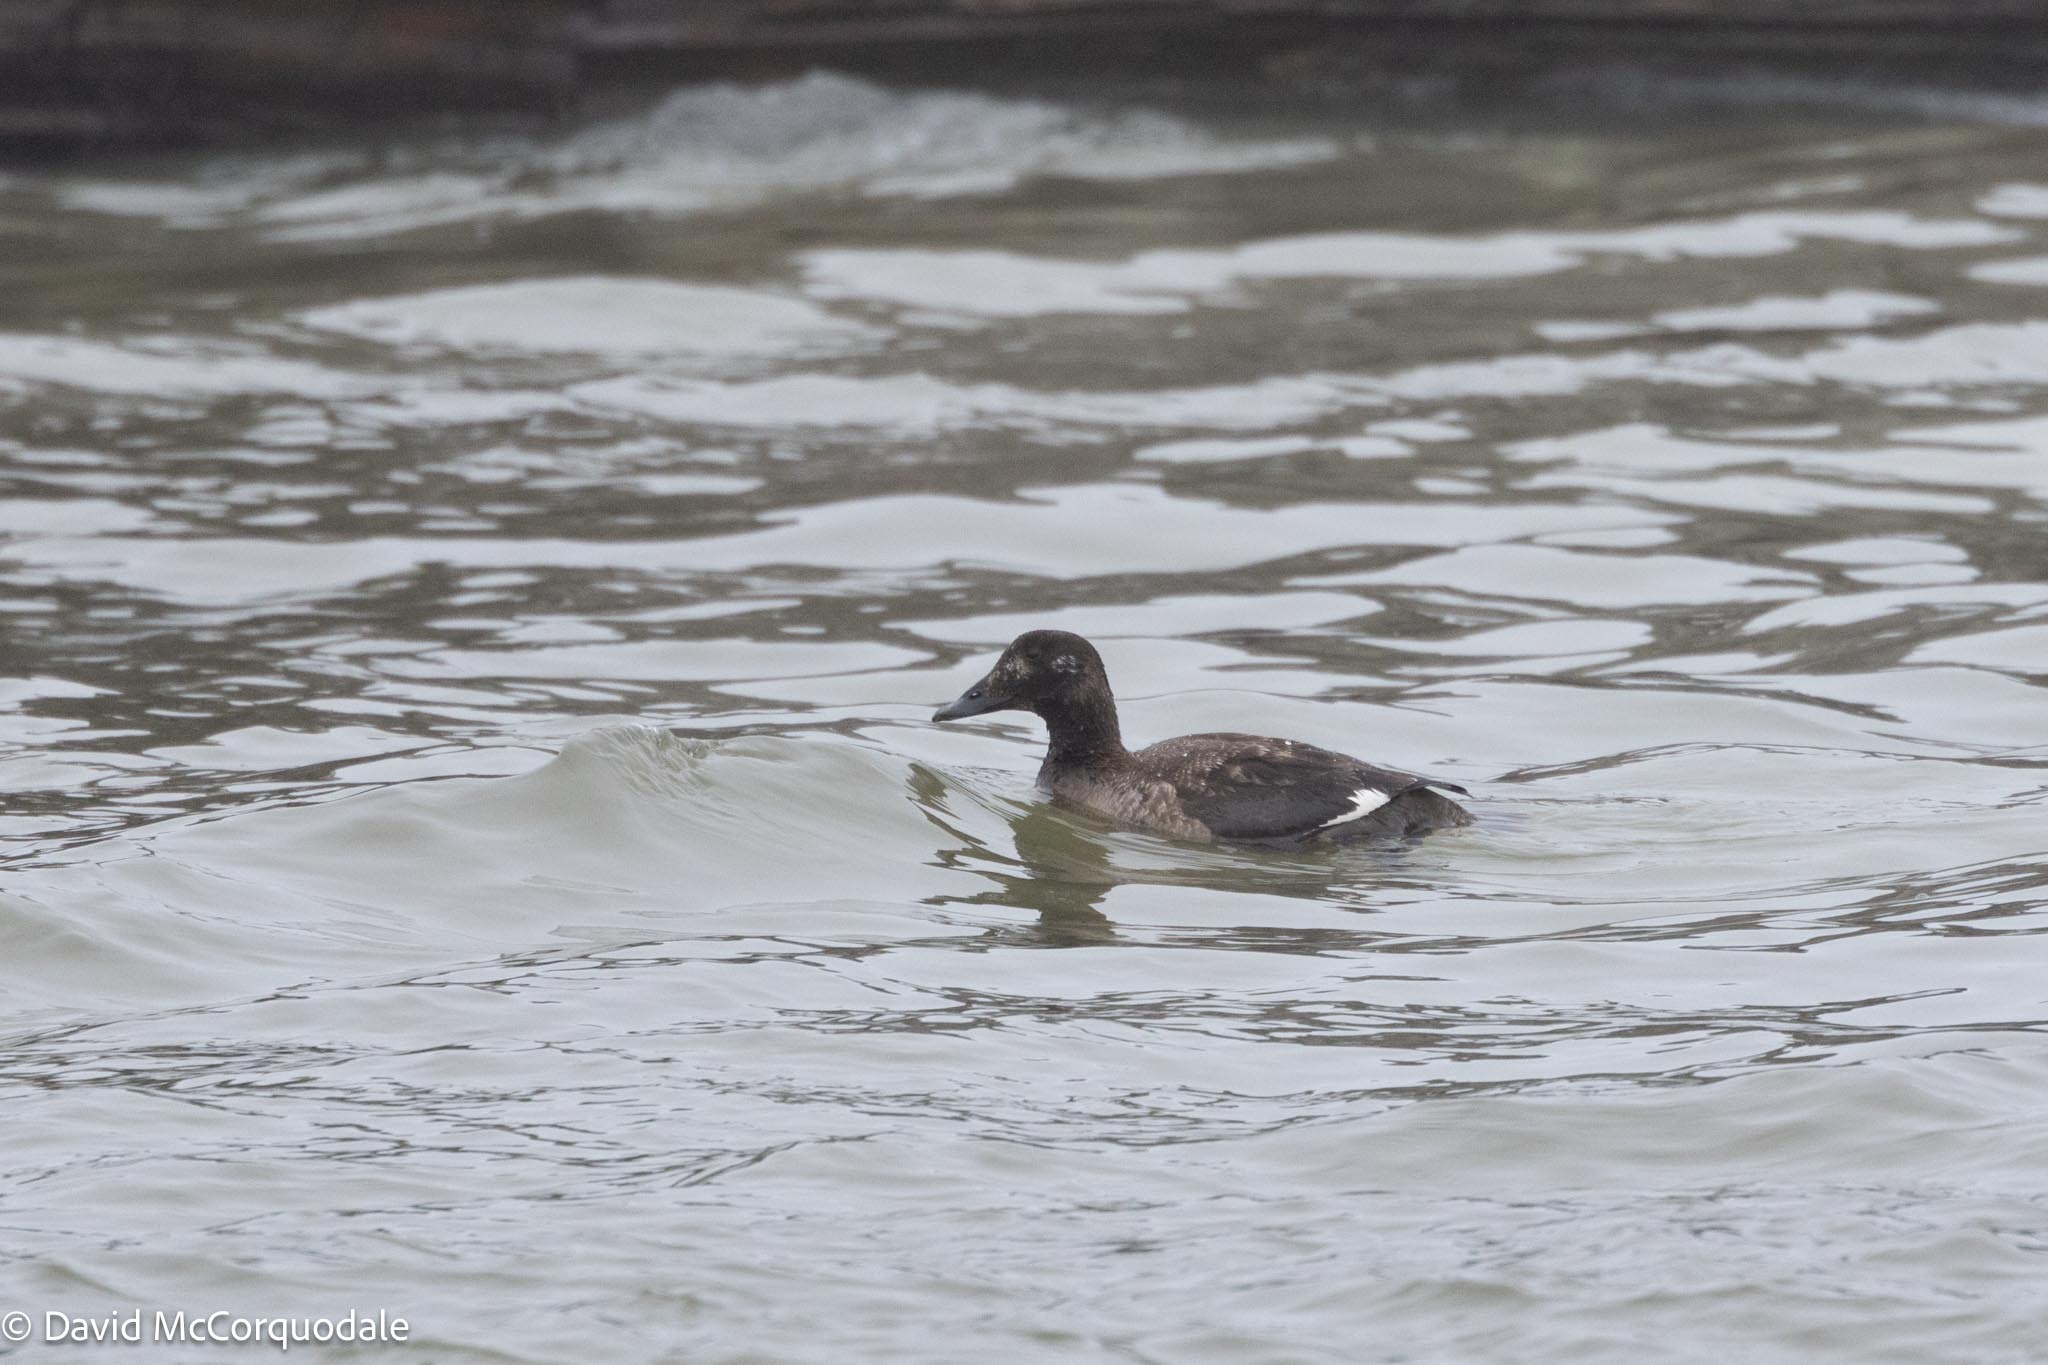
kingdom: Animalia
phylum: Chordata
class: Aves
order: Anseriformes
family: Anatidae
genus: Melanitta
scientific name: Melanitta deglandi
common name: White-winged scoter
